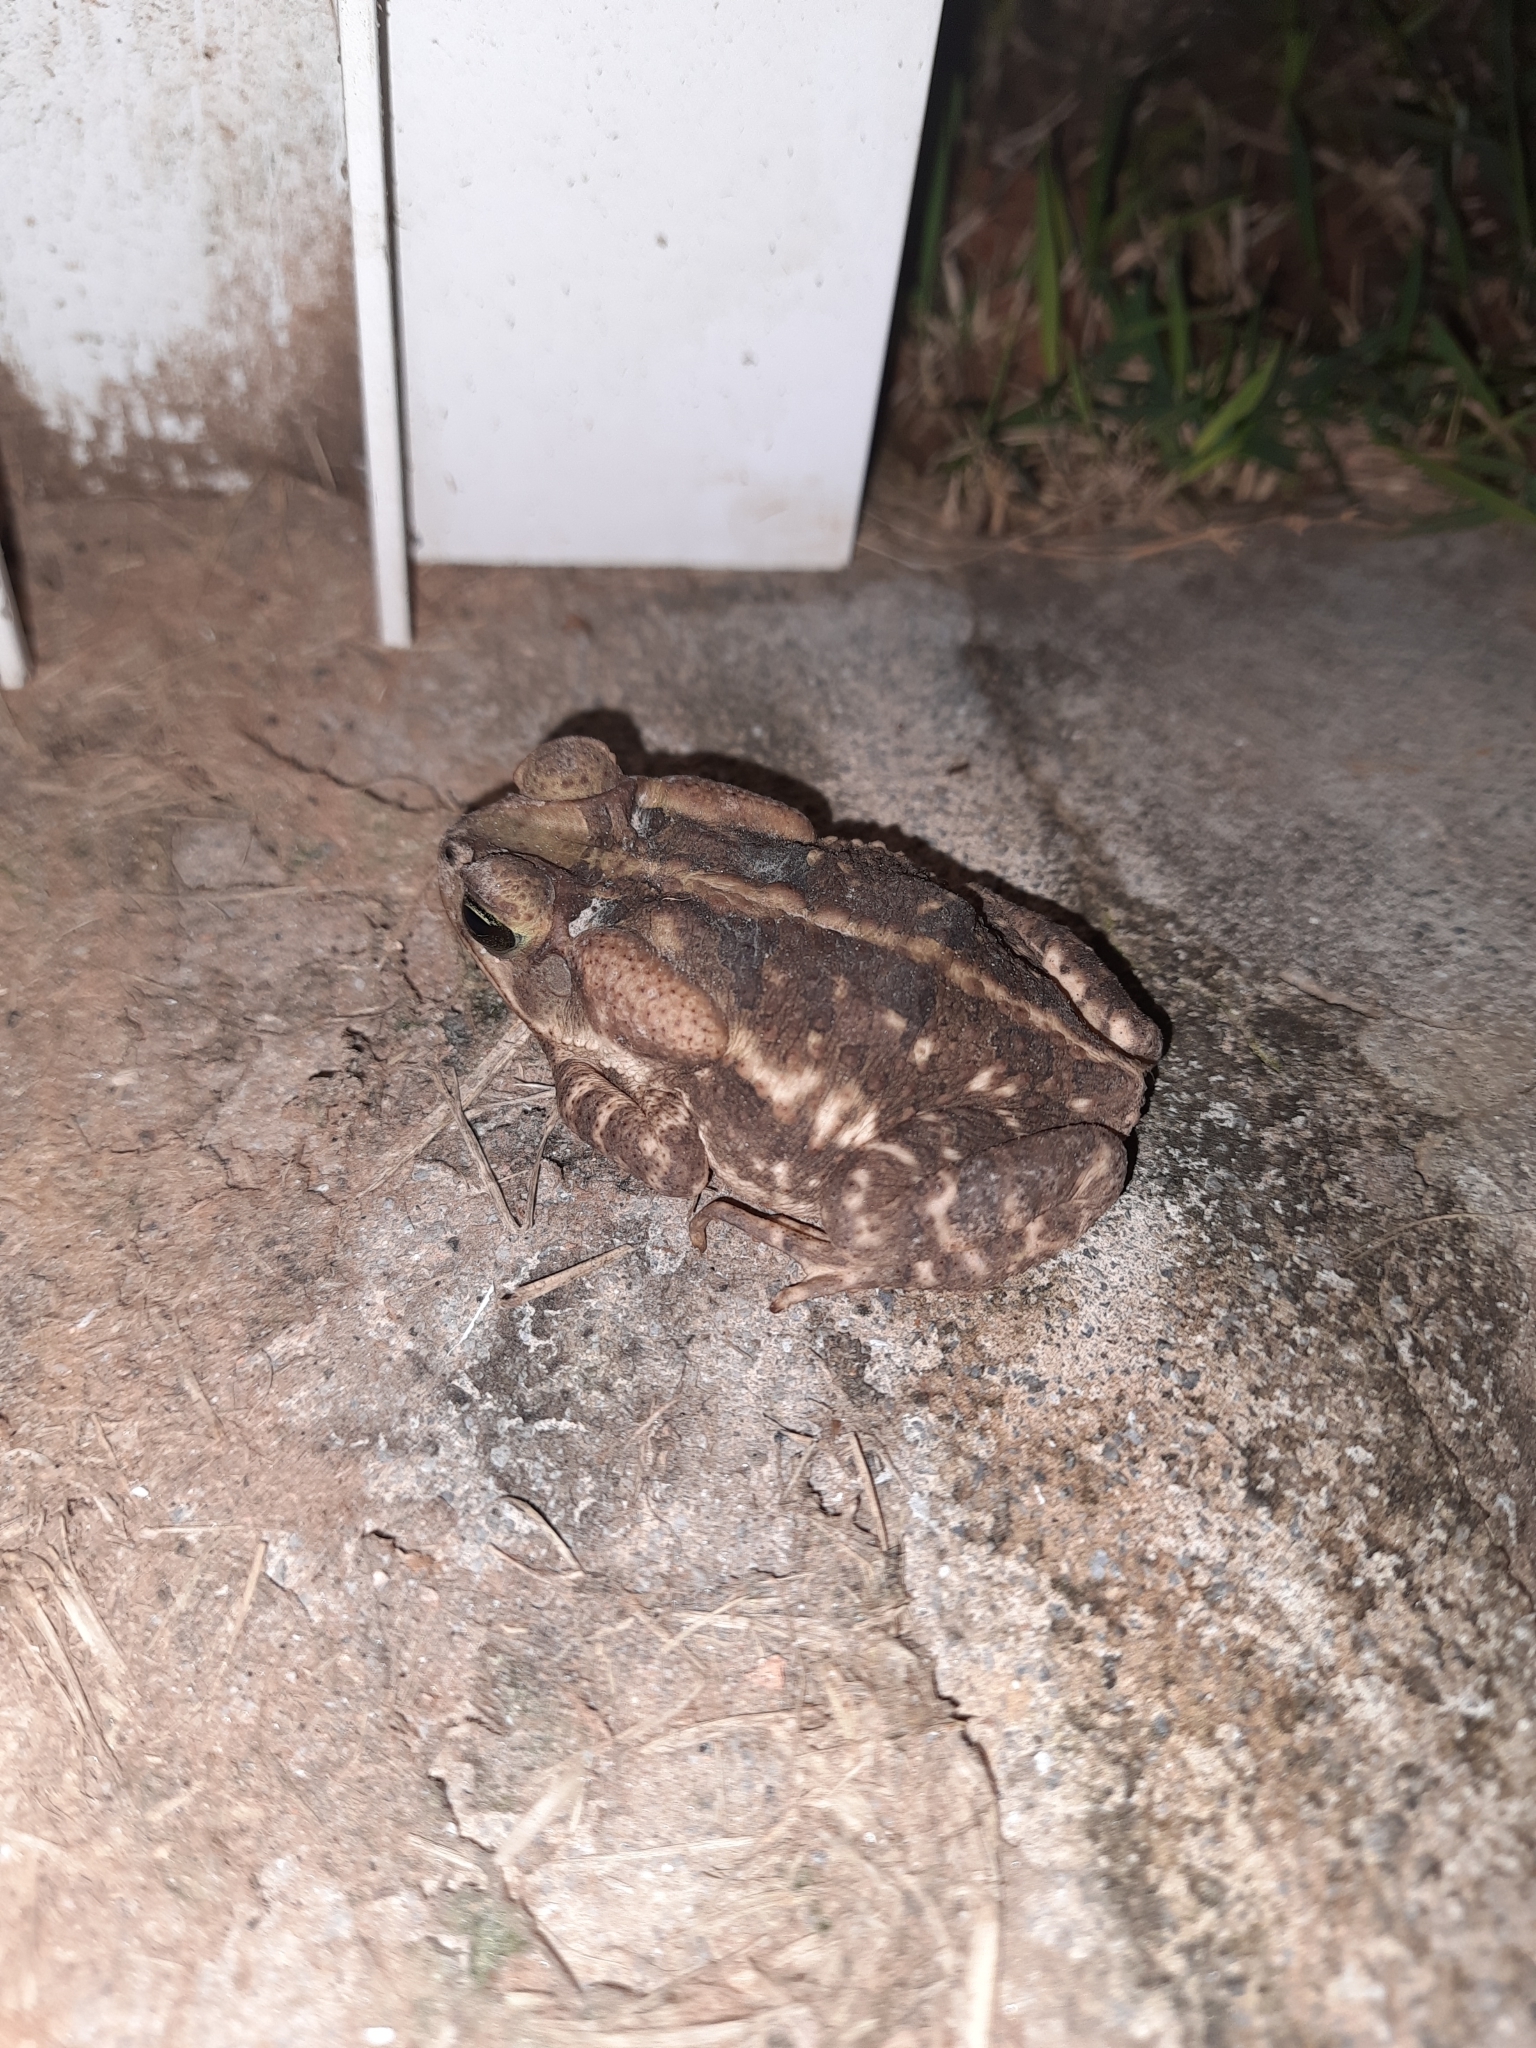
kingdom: Animalia
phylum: Chordata
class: Amphibia
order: Anura
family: Bufonidae
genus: Rhinella
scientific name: Rhinella icterica
